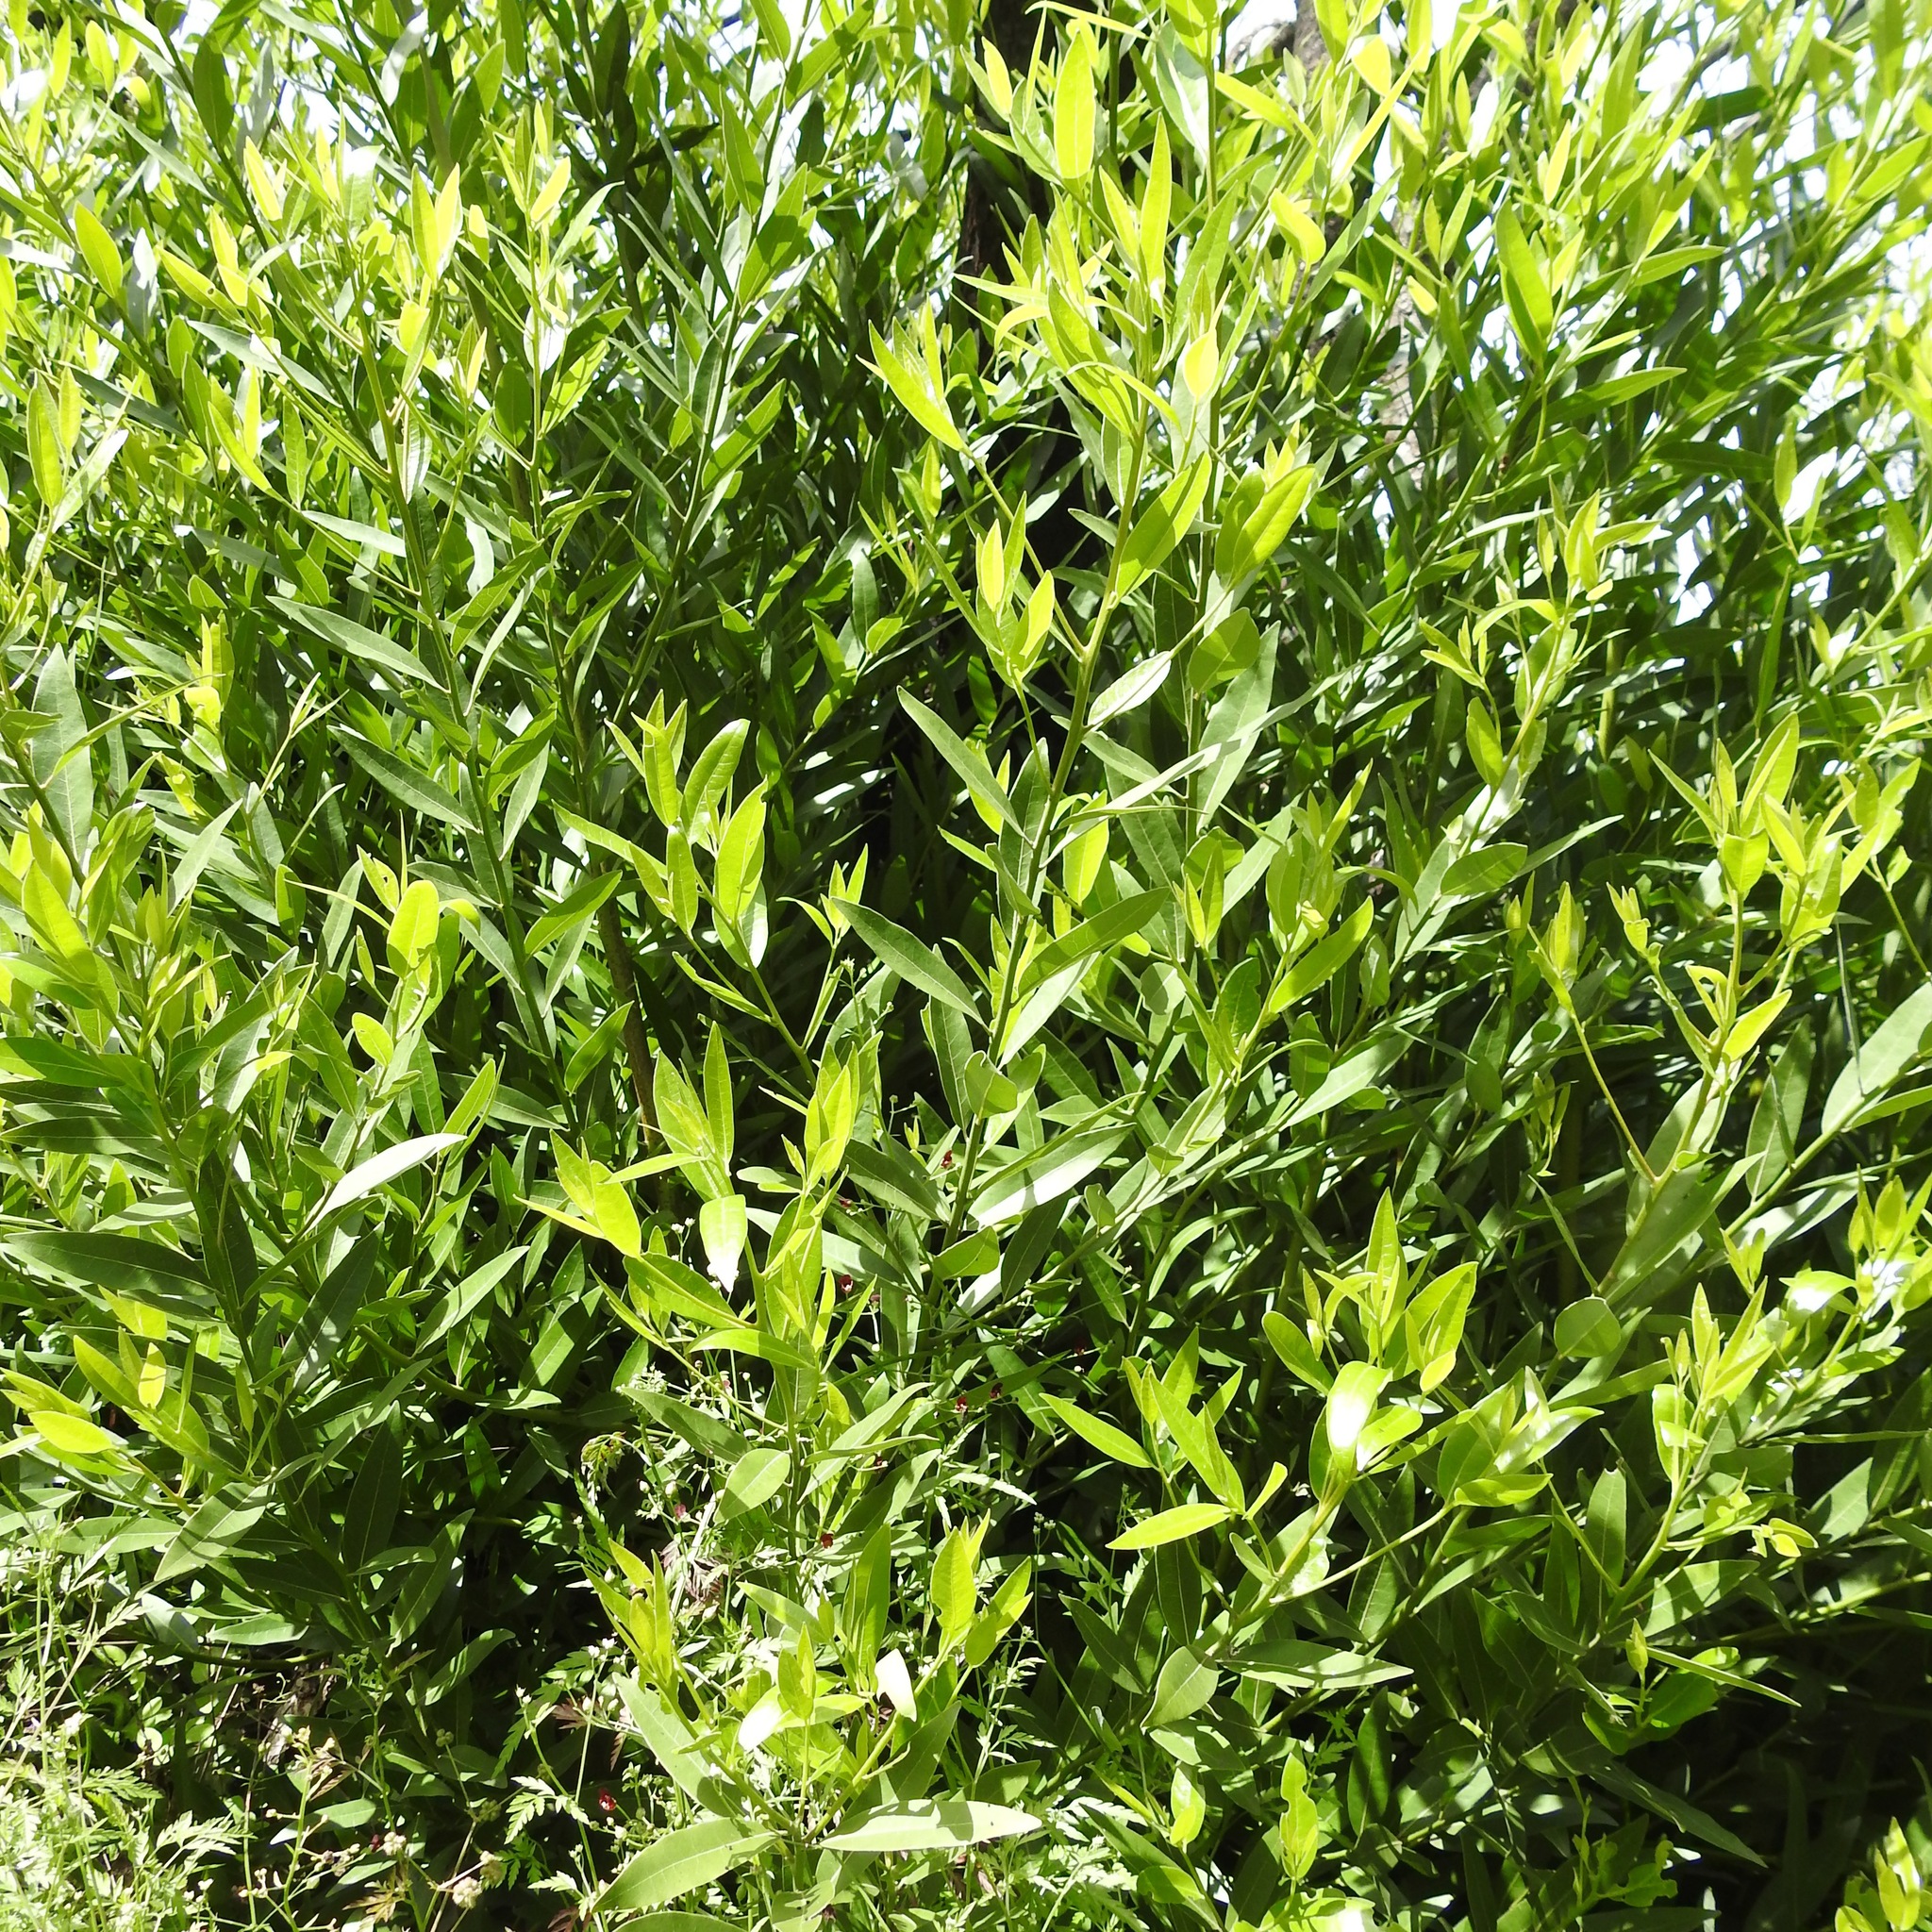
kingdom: Plantae
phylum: Tracheophyta
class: Magnoliopsida
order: Laurales
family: Lauraceae
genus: Umbellularia
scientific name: Umbellularia californica
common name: California bay
